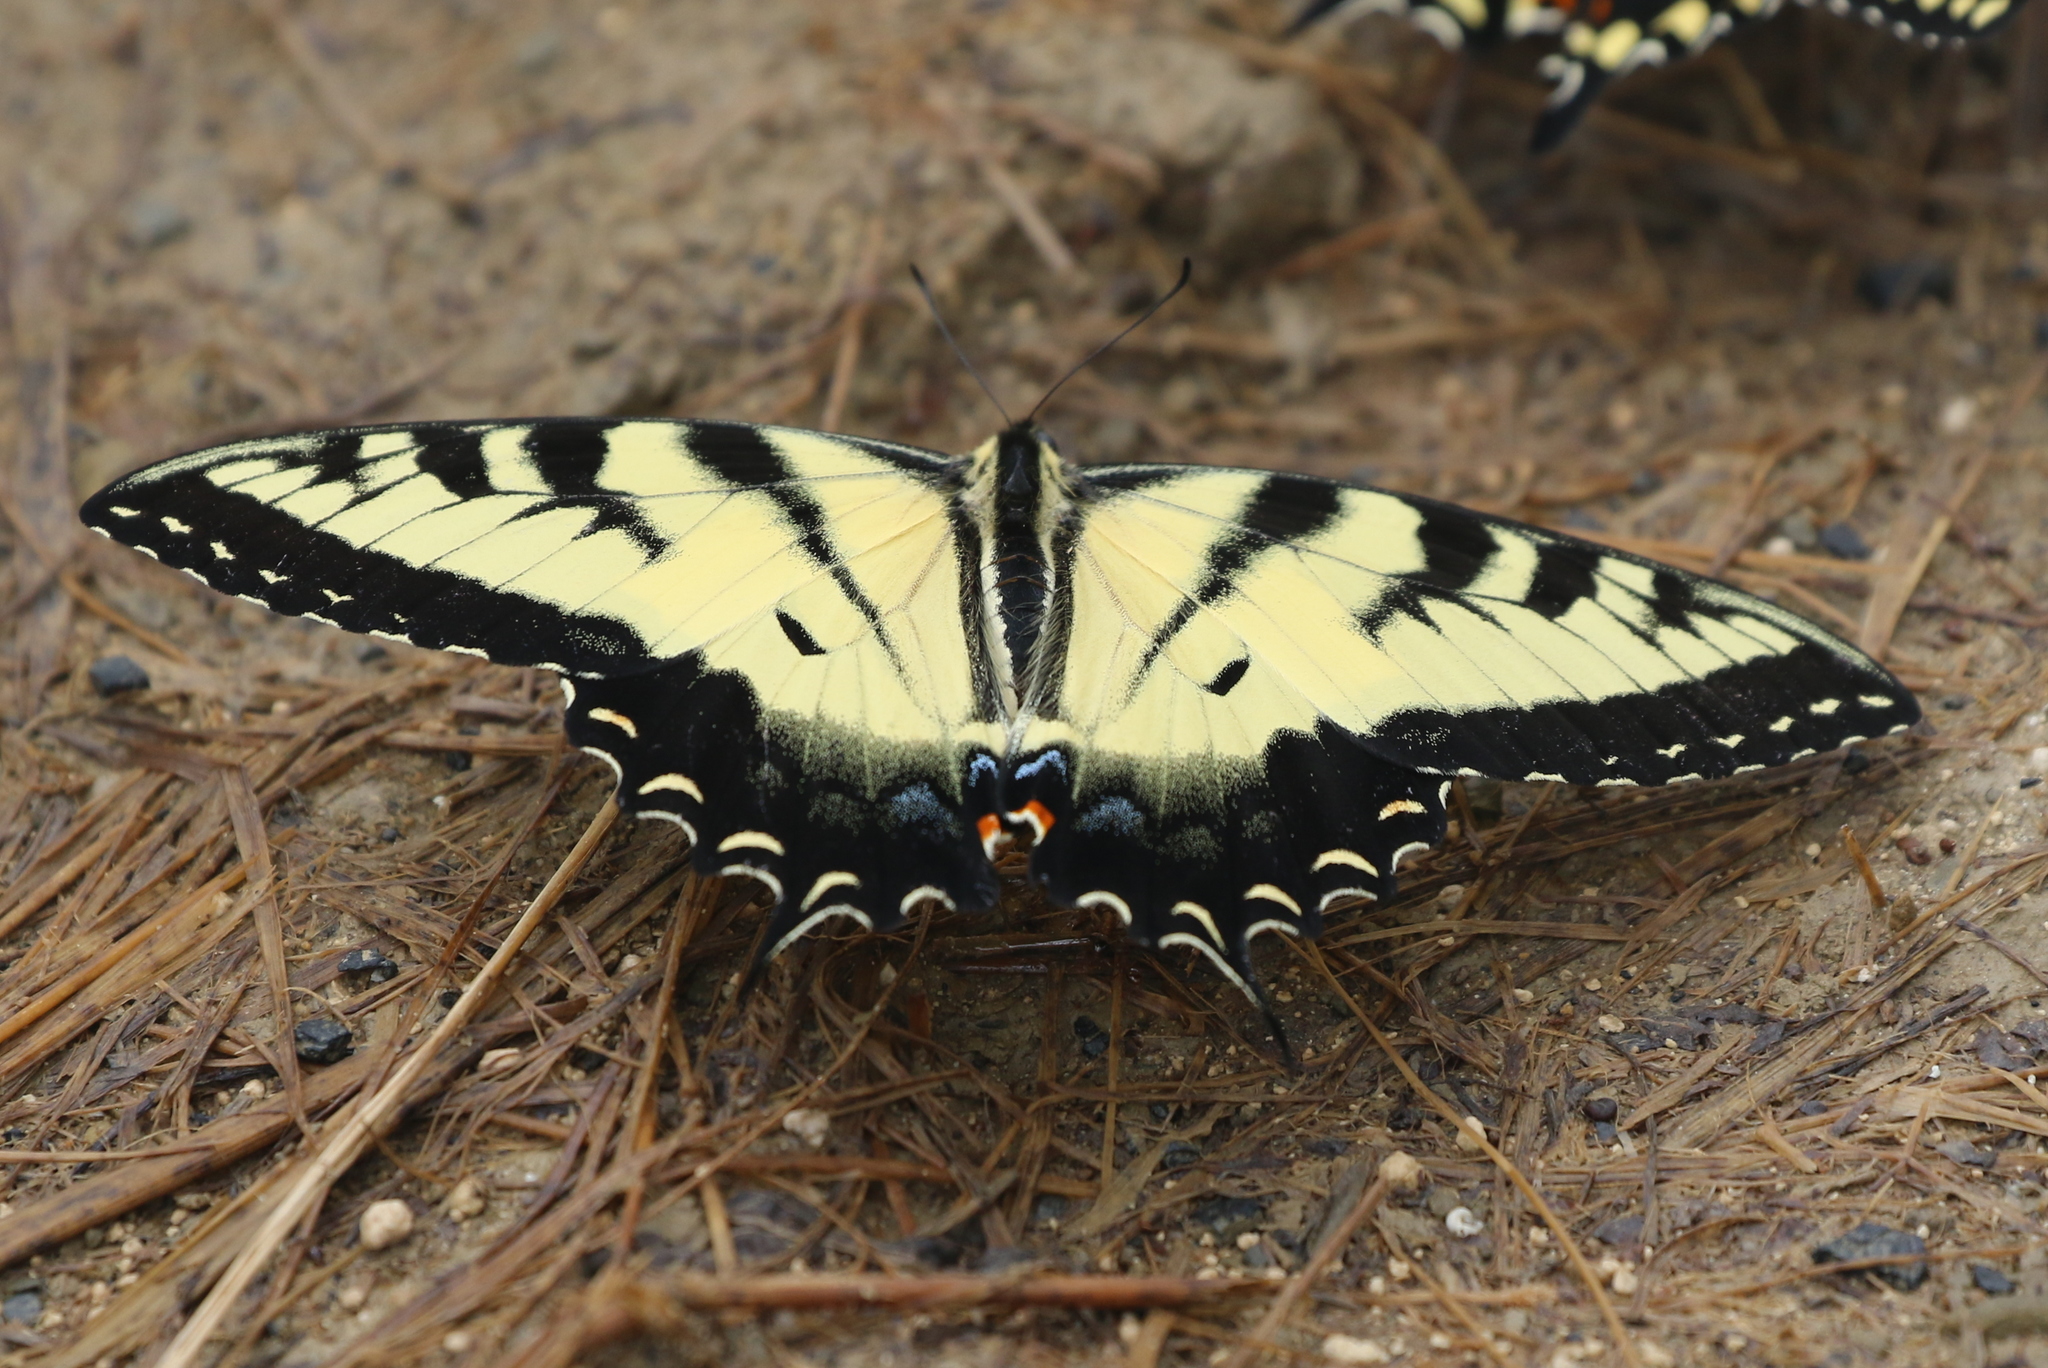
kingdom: Animalia
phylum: Arthropoda
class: Insecta
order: Lepidoptera
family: Papilionidae
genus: Papilio
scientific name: Papilio glaucus
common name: Tiger swallowtail
